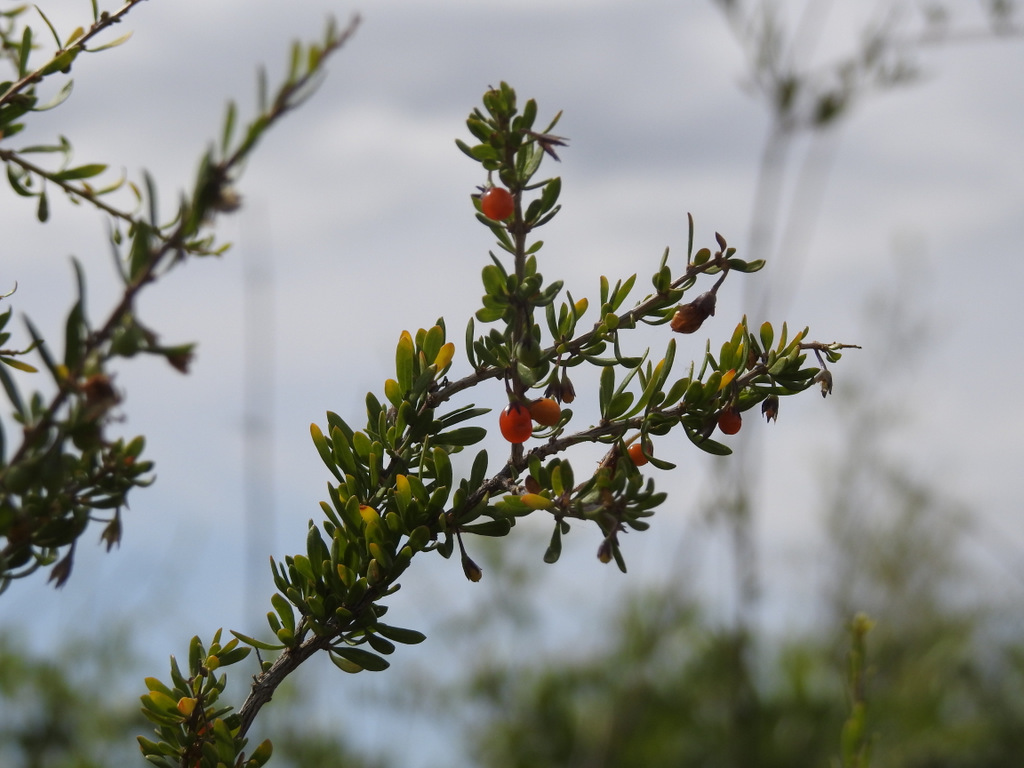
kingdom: Plantae
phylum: Tracheophyta
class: Magnoliopsida
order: Solanales
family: Solanaceae
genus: Lycium
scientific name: Lycium chilense
